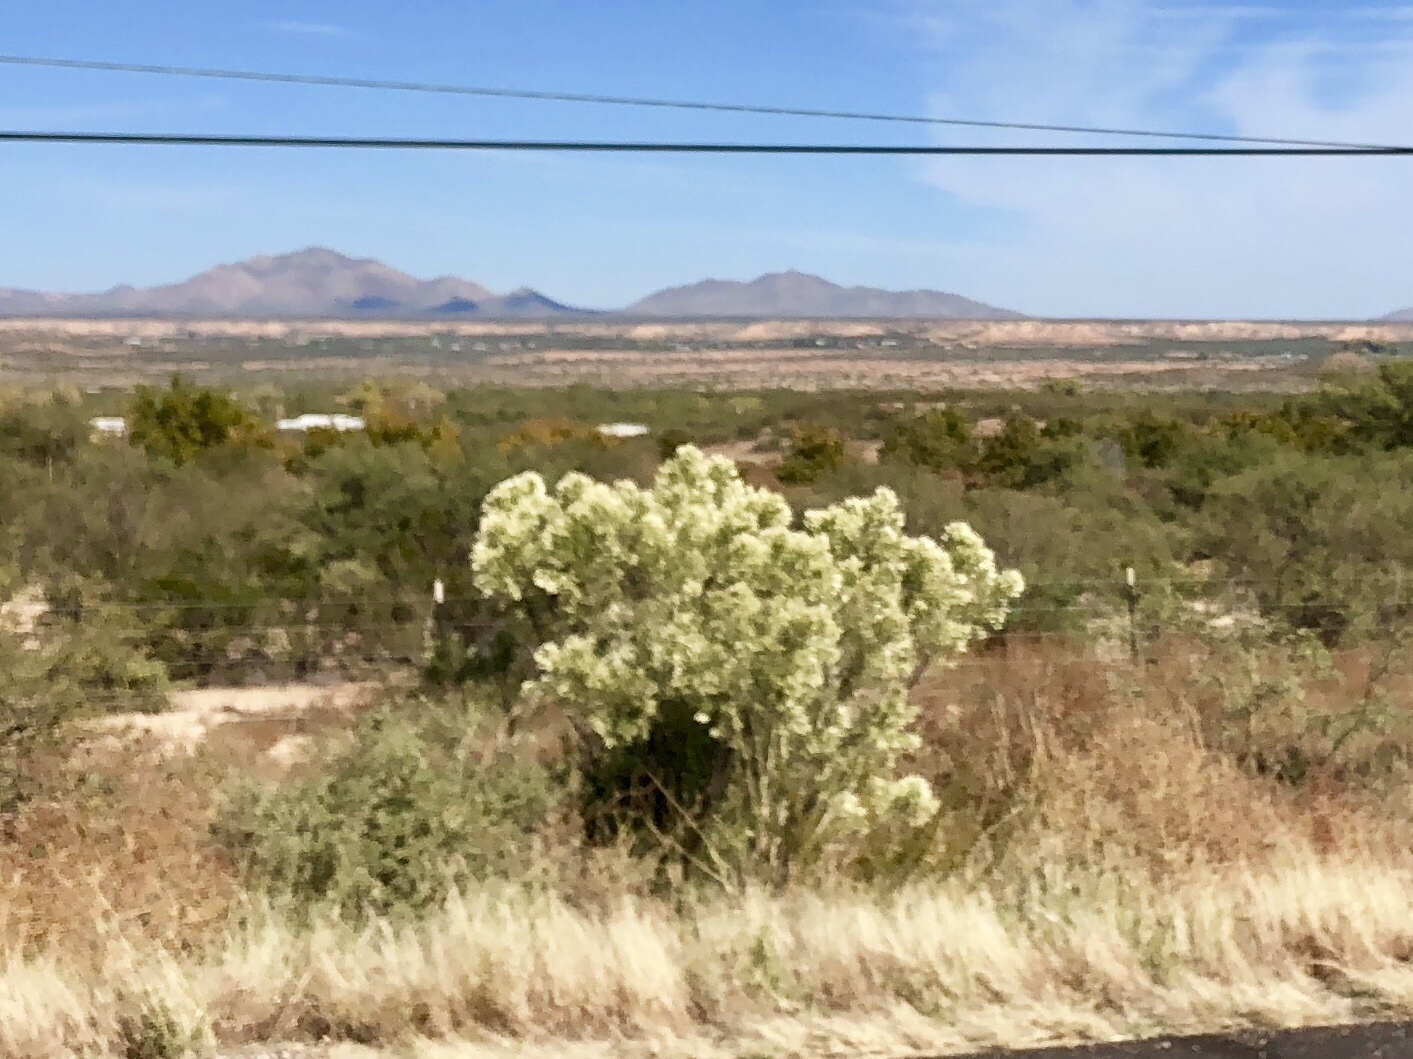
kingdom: Plantae
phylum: Tracheophyta
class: Magnoliopsida
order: Asterales
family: Asteraceae
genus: Baccharis
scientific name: Baccharis sarothroides
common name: Desert-broom
